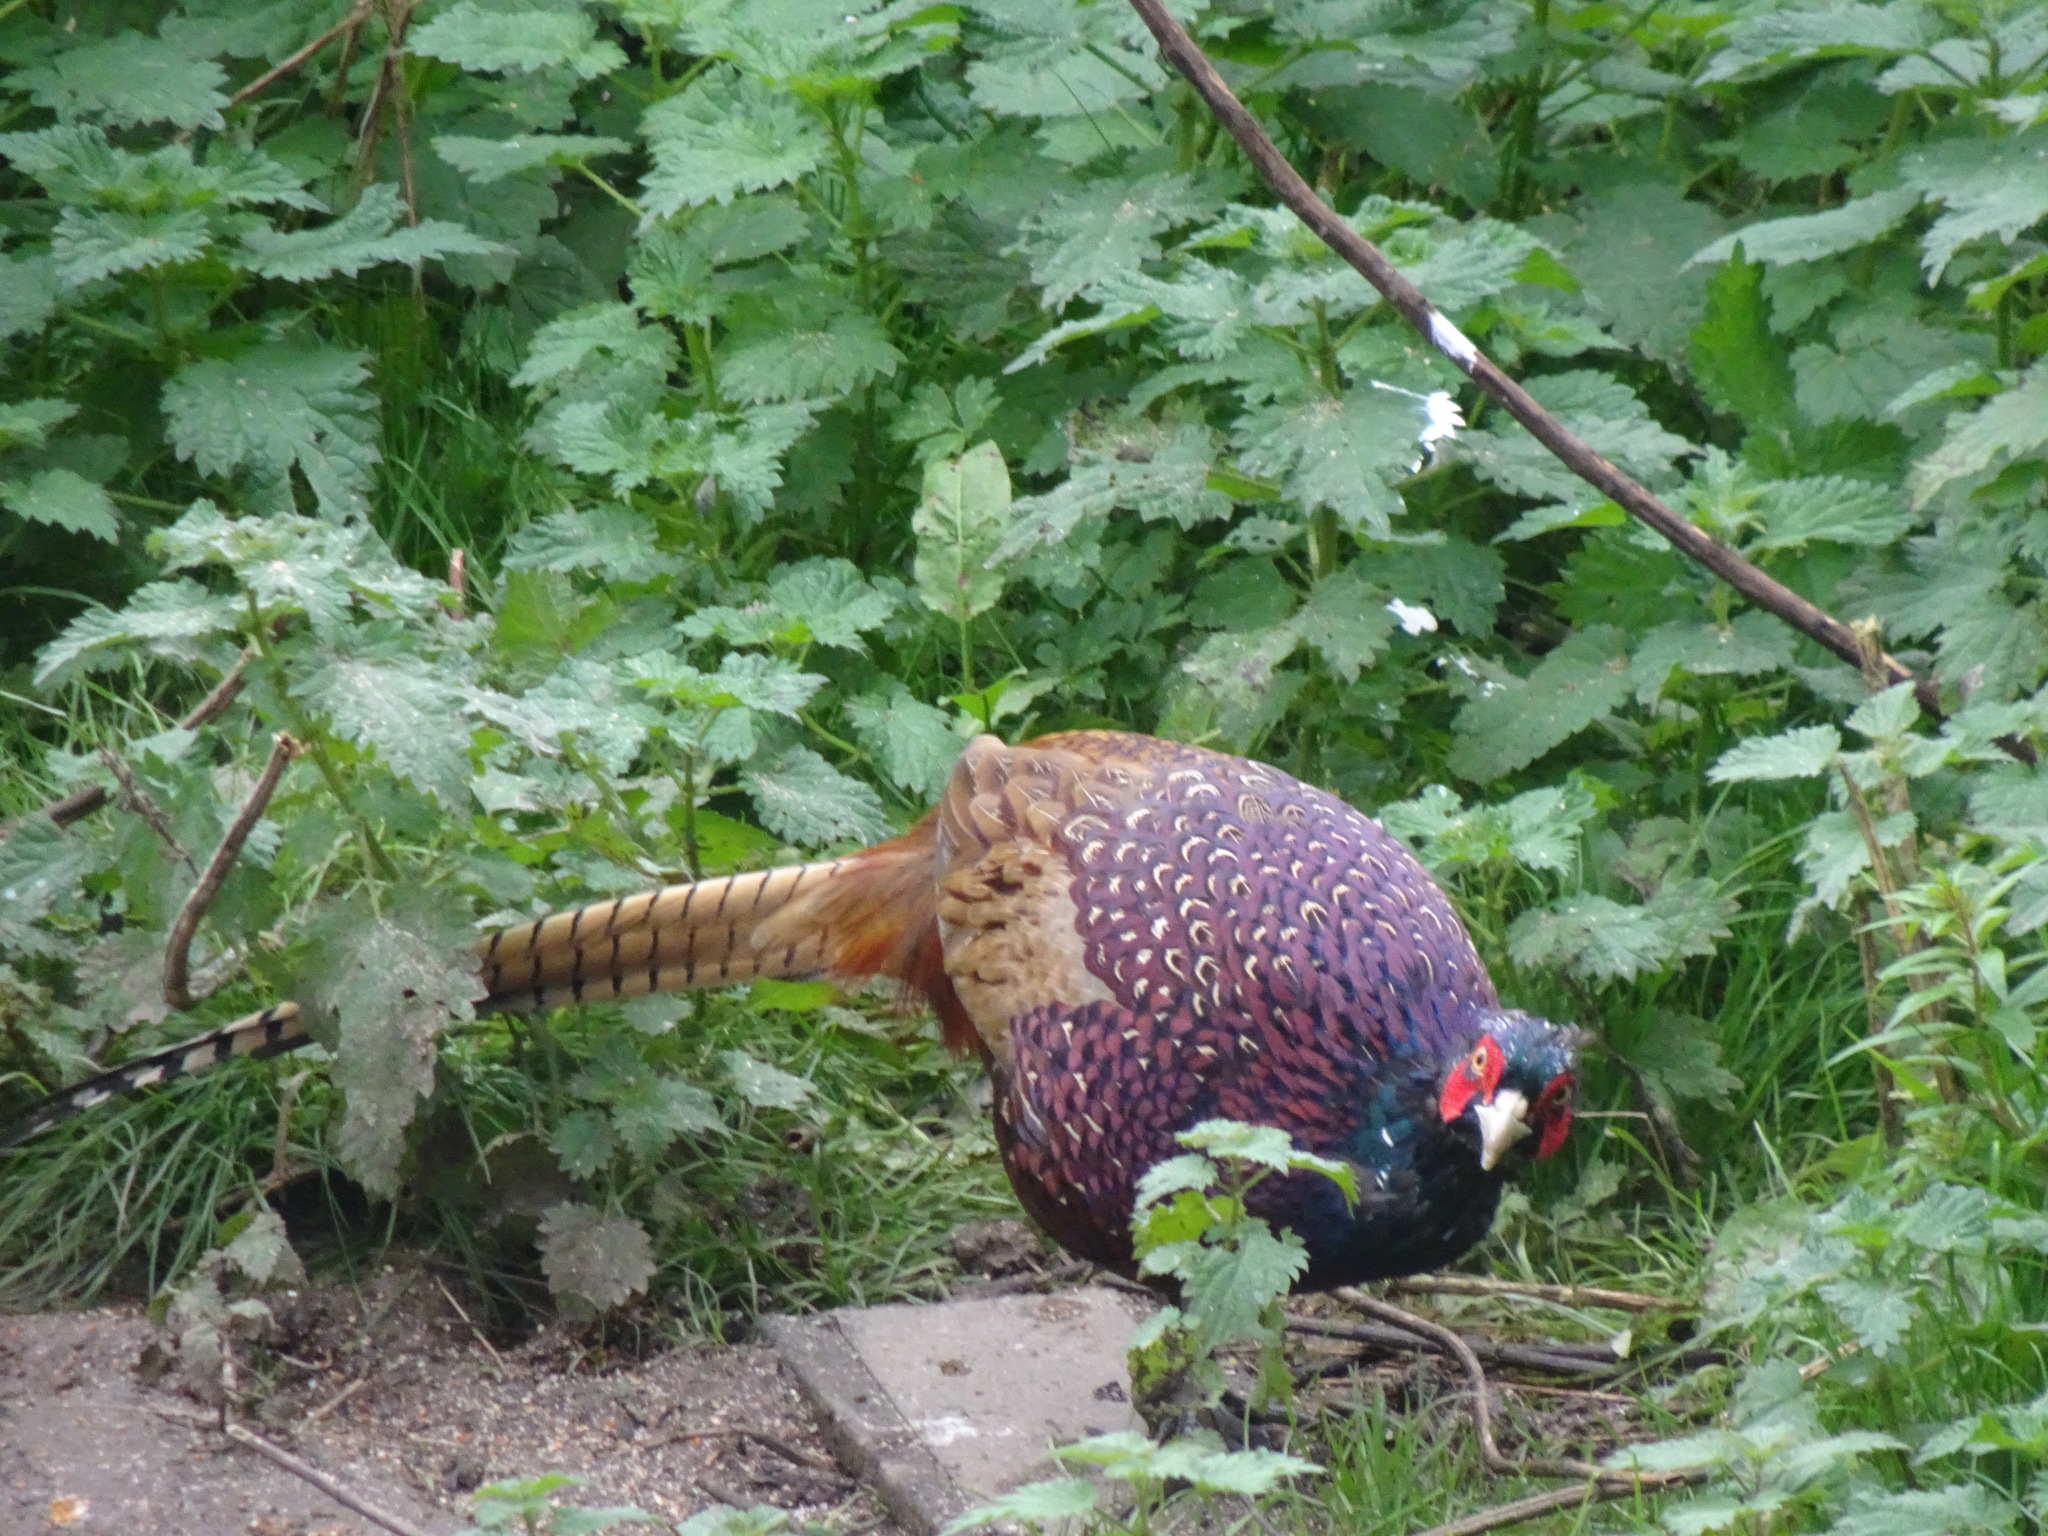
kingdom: Animalia
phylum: Chordata
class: Aves
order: Galliformes
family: Phasianidae
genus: Phasianus
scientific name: Phasianus colchicus
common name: Common pheasant
